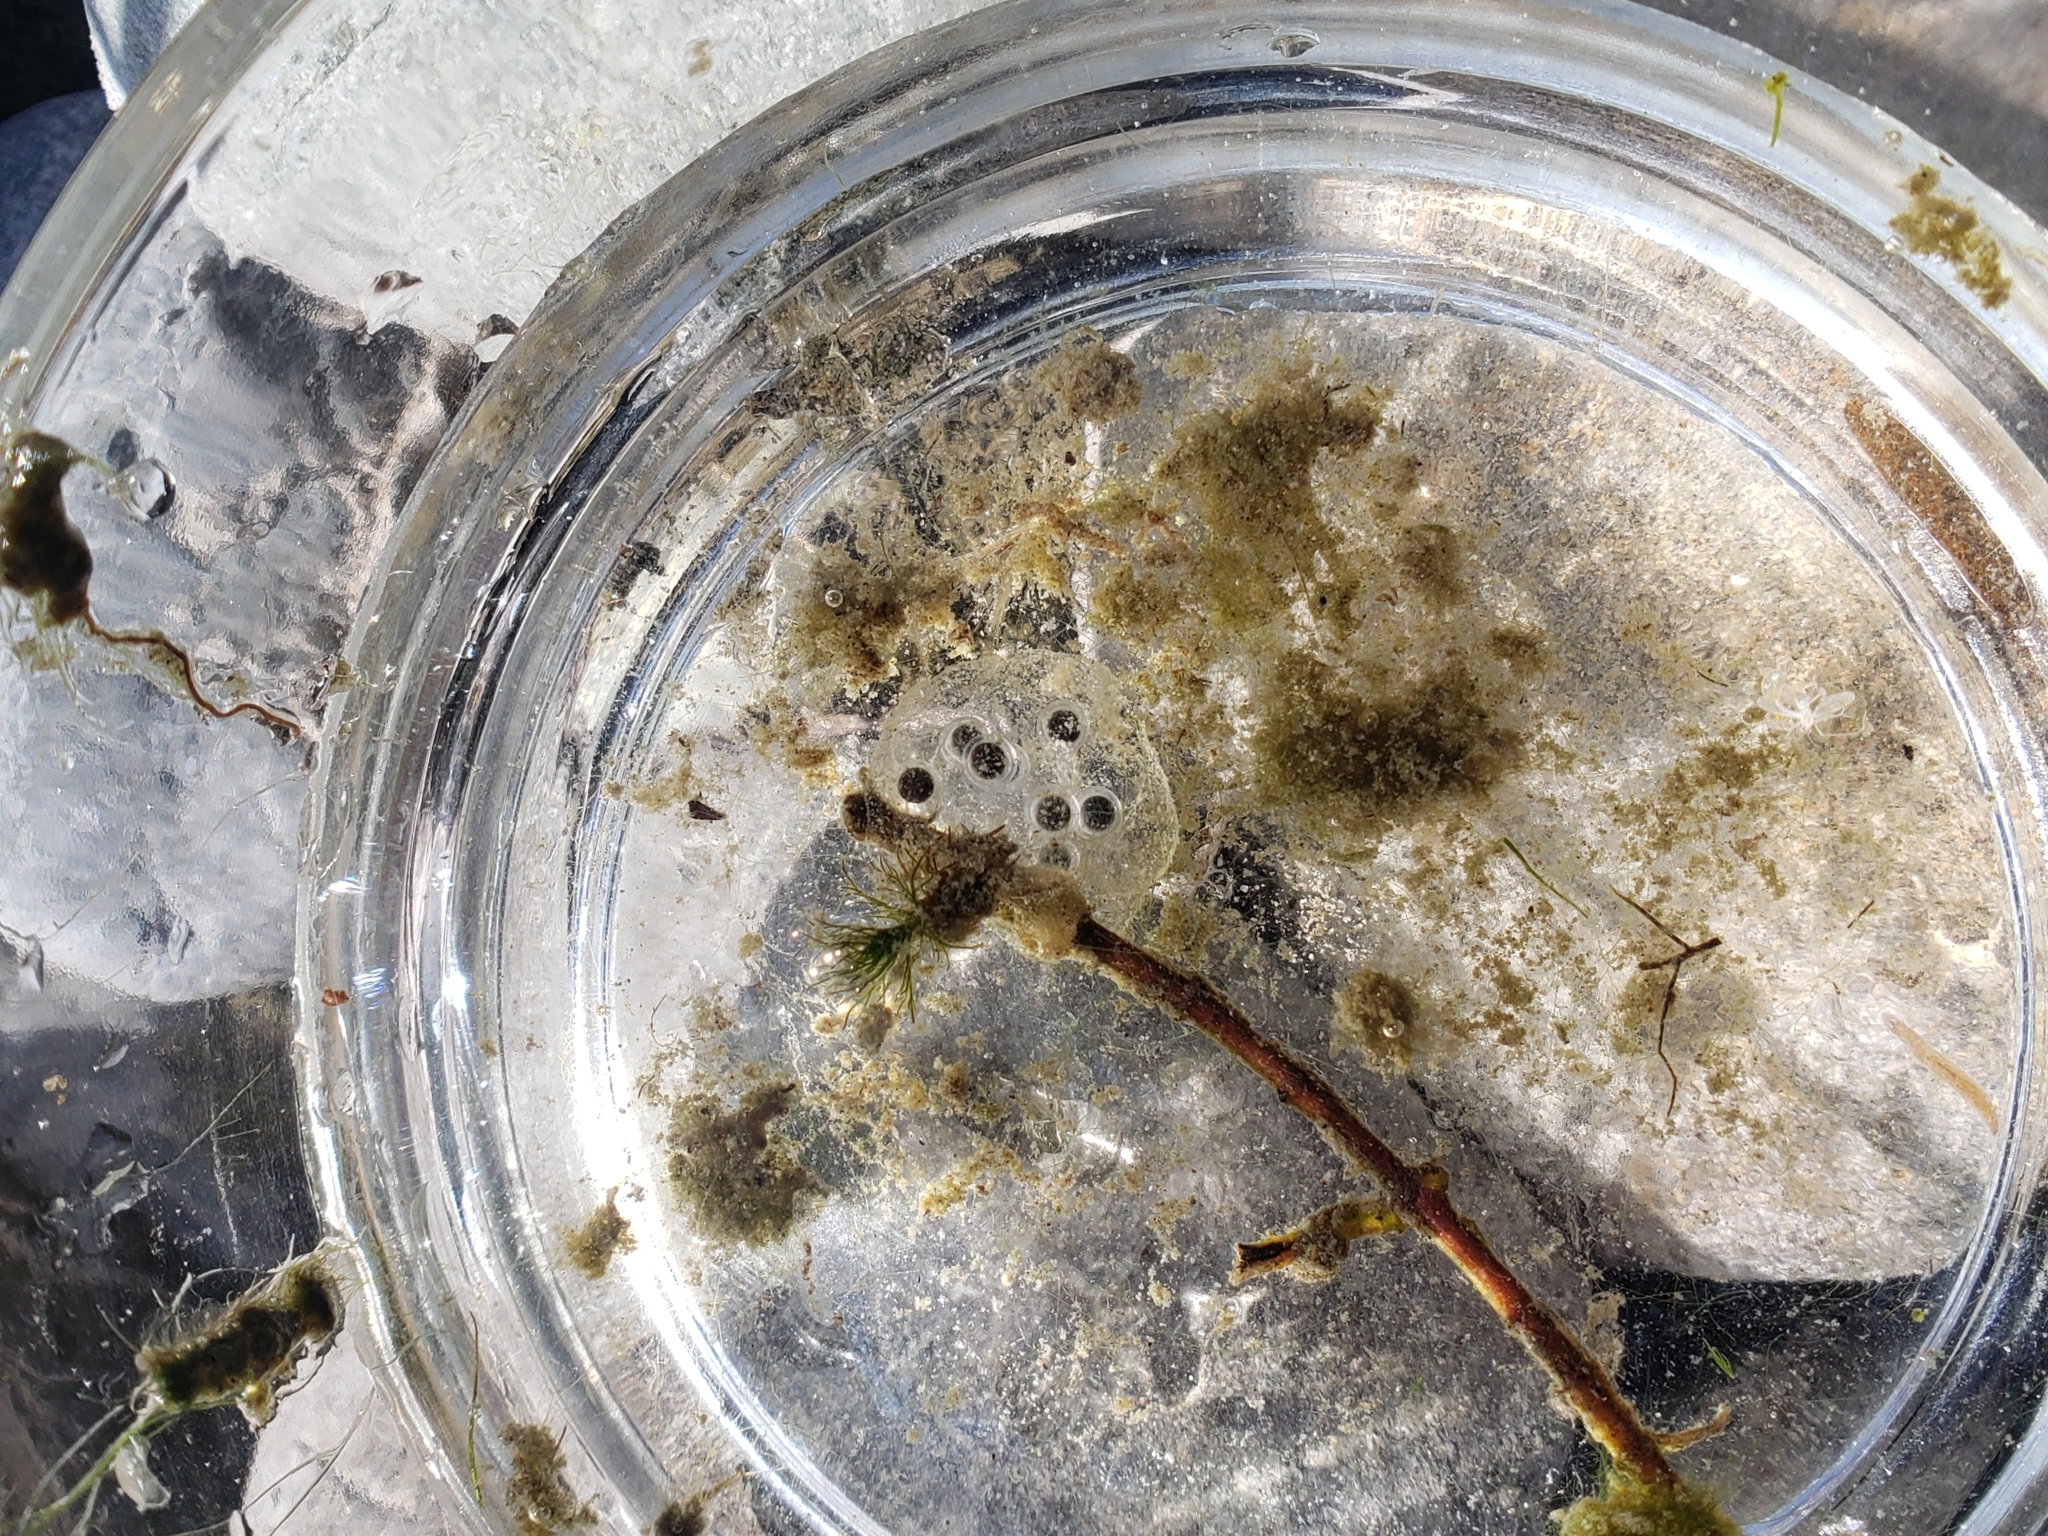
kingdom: Animalia
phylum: Chordata
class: Amphibia
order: Caudata
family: Ambystomatidae
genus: Ambystoma
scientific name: Ambystoma macrodactylum
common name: Long-toed salamander
